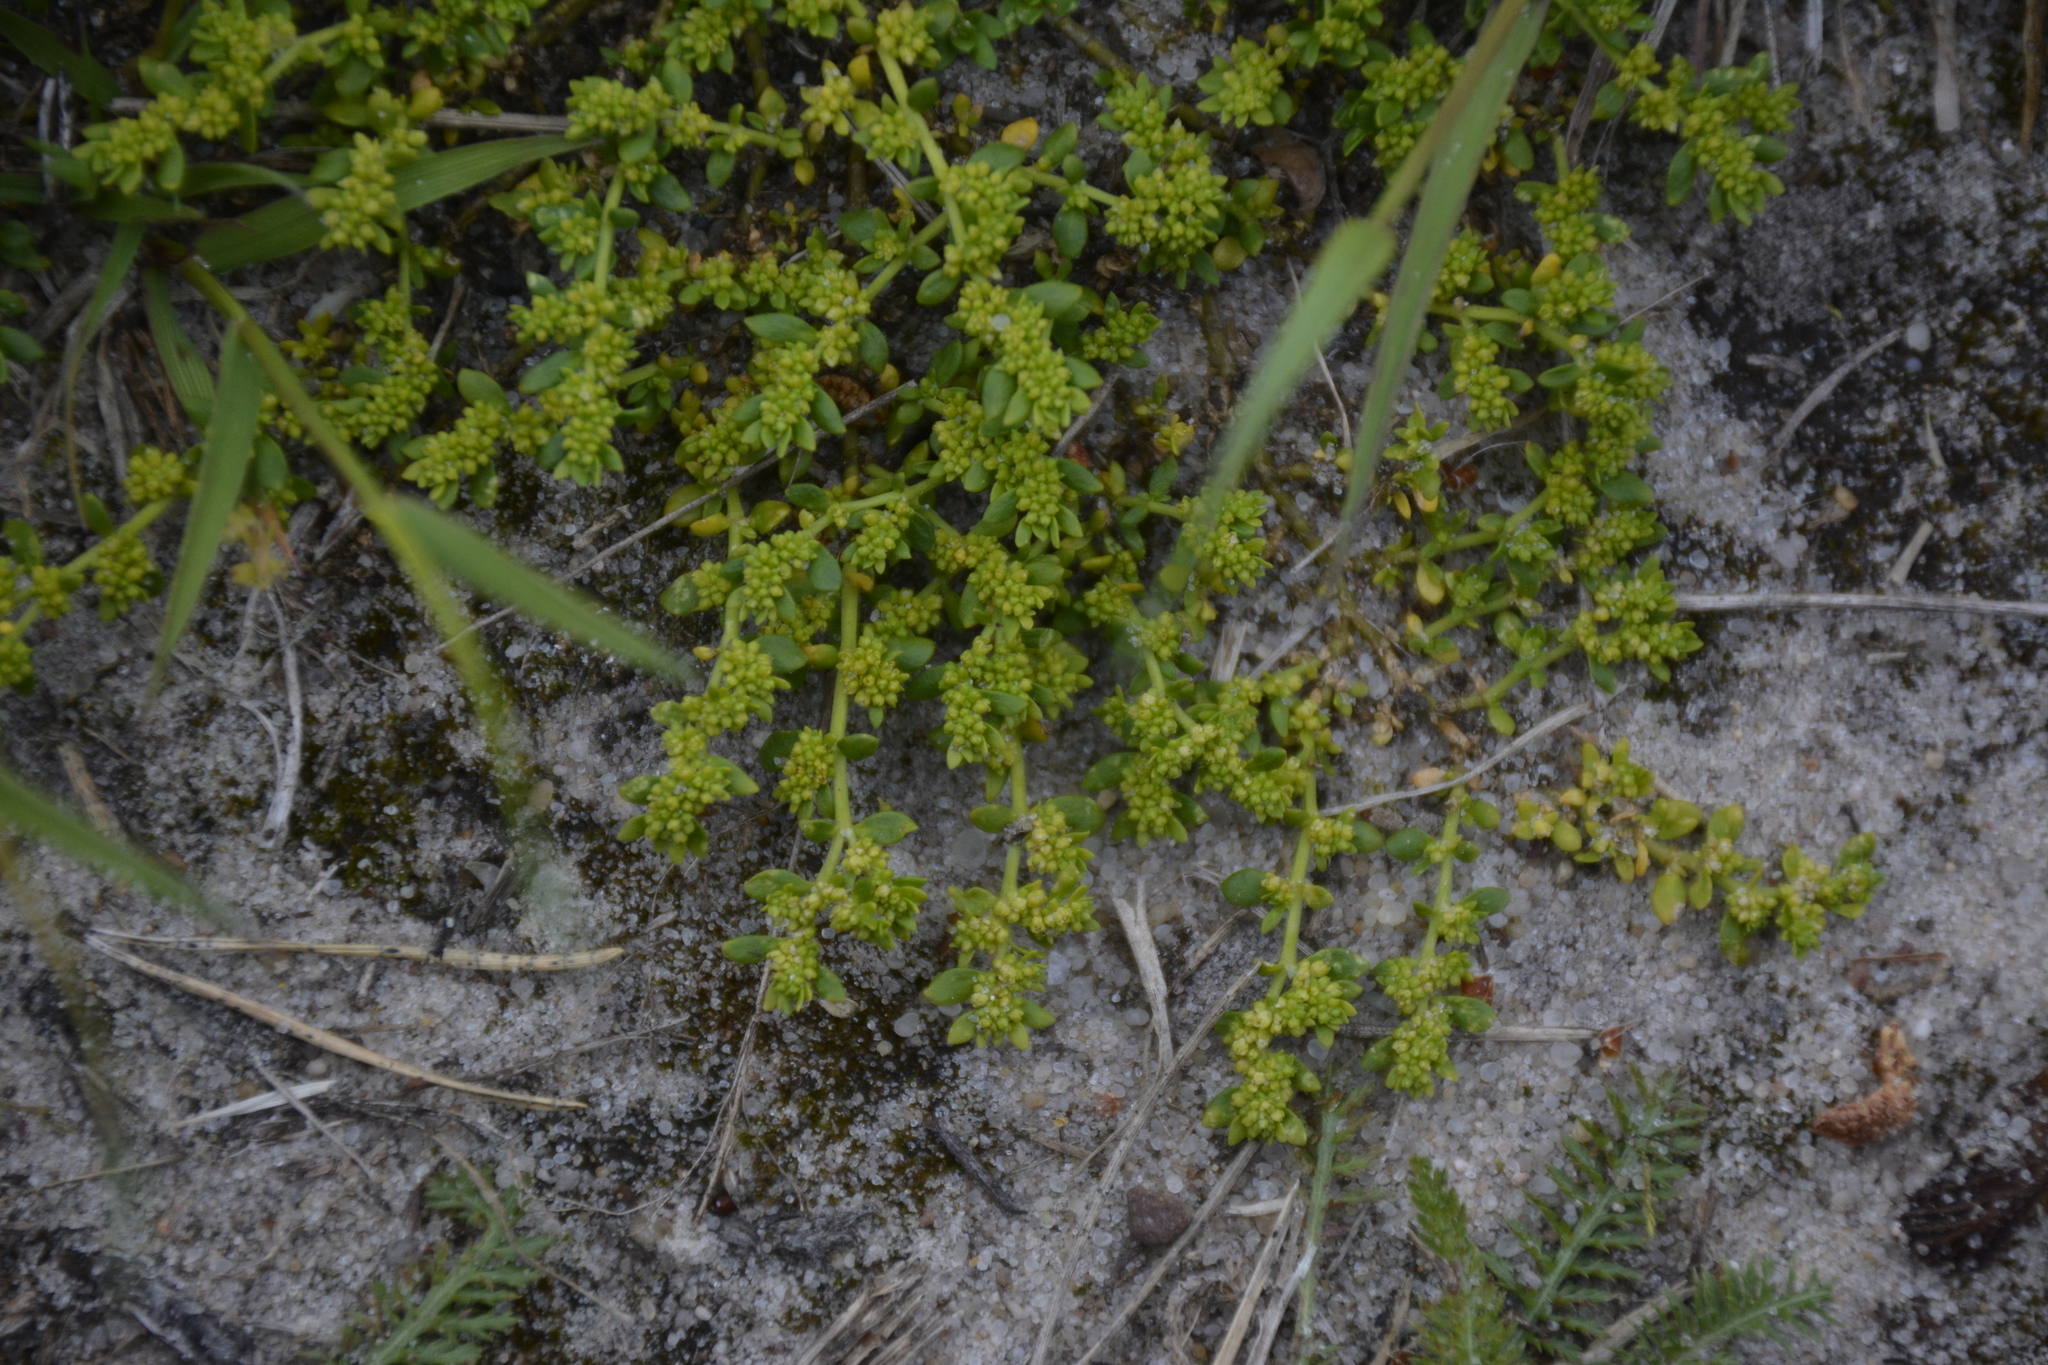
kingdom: Plantae
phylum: Tracheophyta
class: Magnoliopsida
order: Caryophyllales
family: Caryophyllaceae
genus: Herniaria
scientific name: Herniaria glabra
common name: Smooth rupturewort
